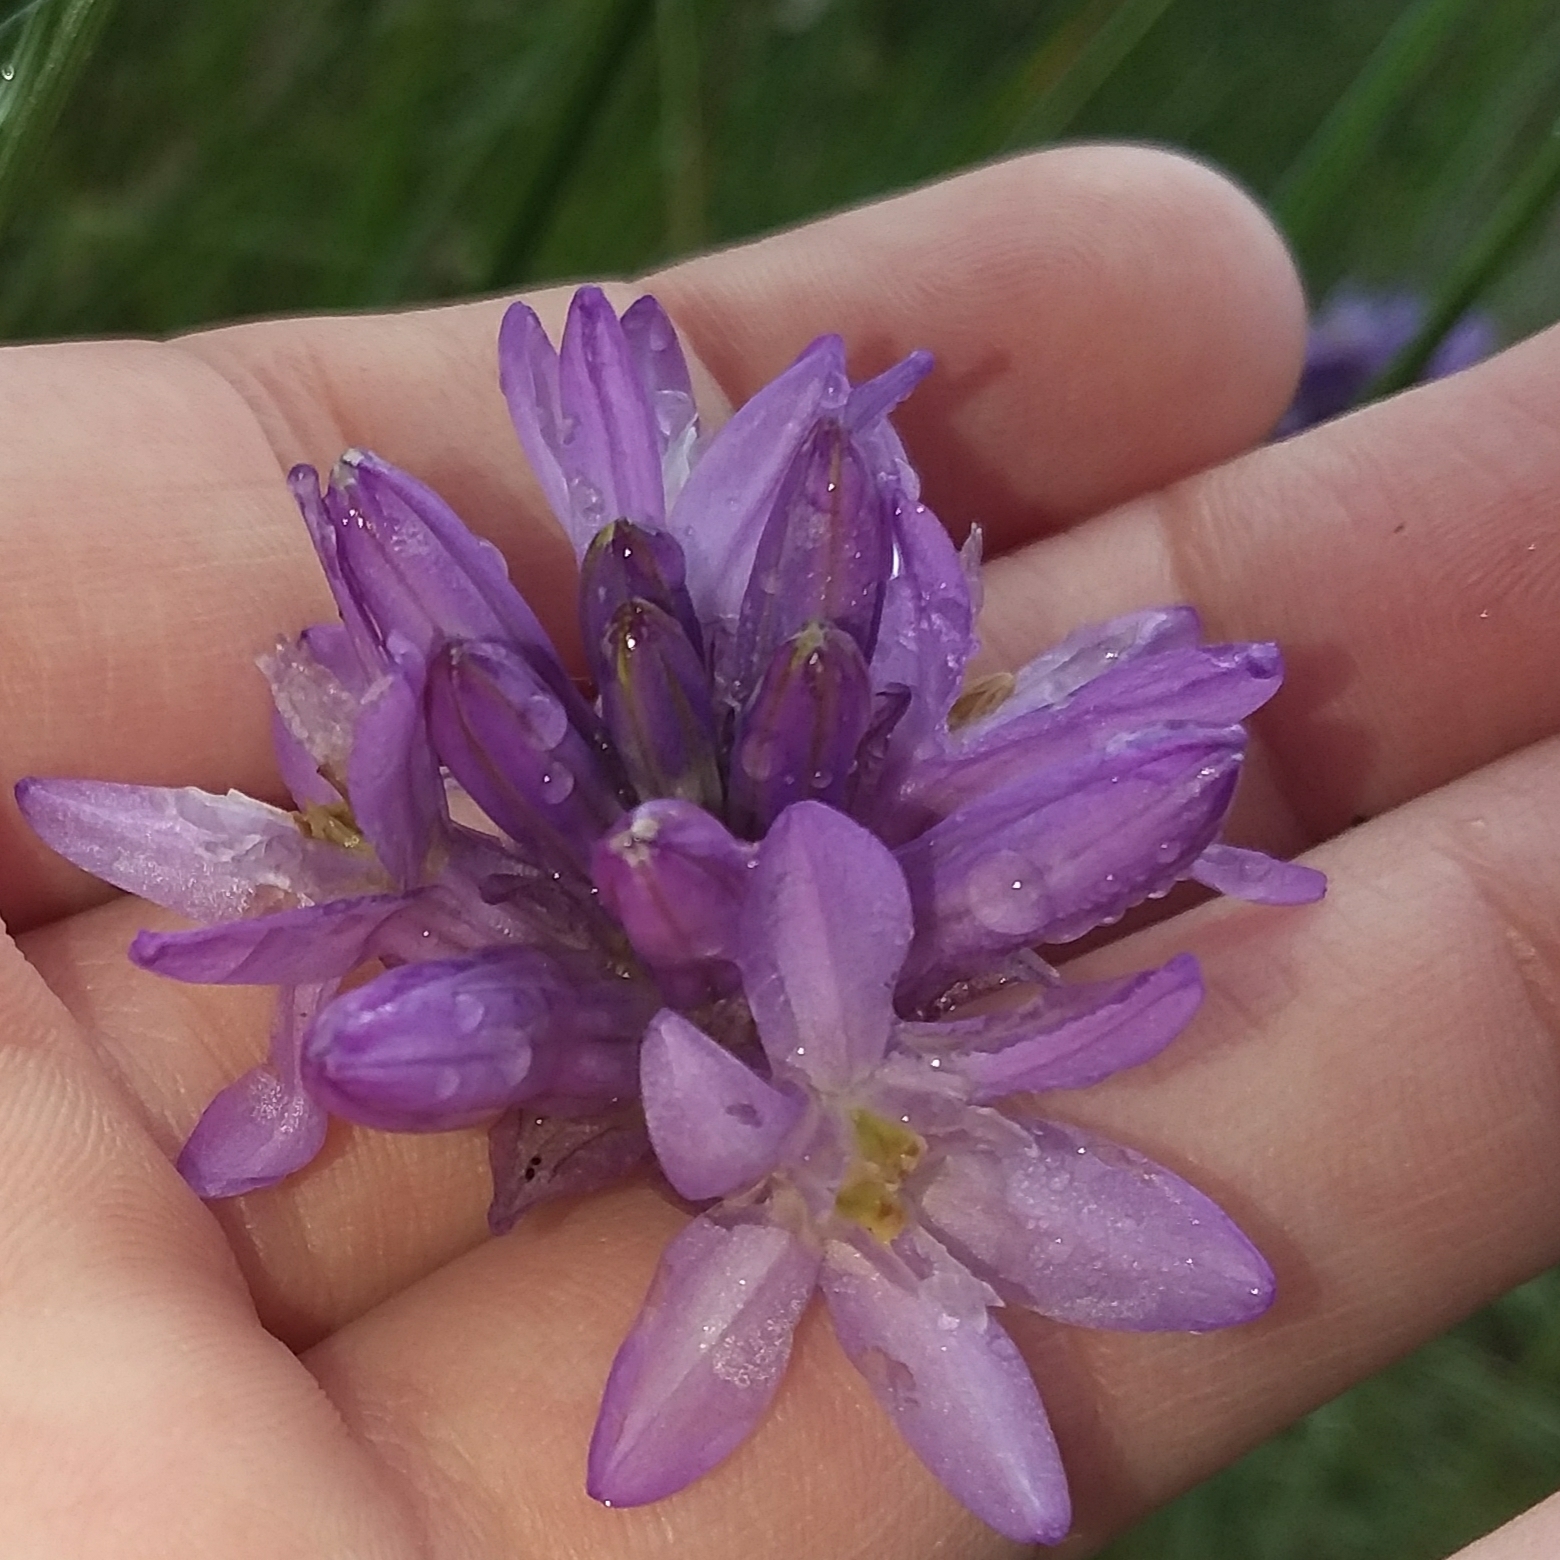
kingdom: Plantae
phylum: Tracheophyta
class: Liliopsida
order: Asparagales
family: Asparagaceae
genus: Dichelostemma
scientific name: Dichelostemma congestum
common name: Fork-tooth ookow
